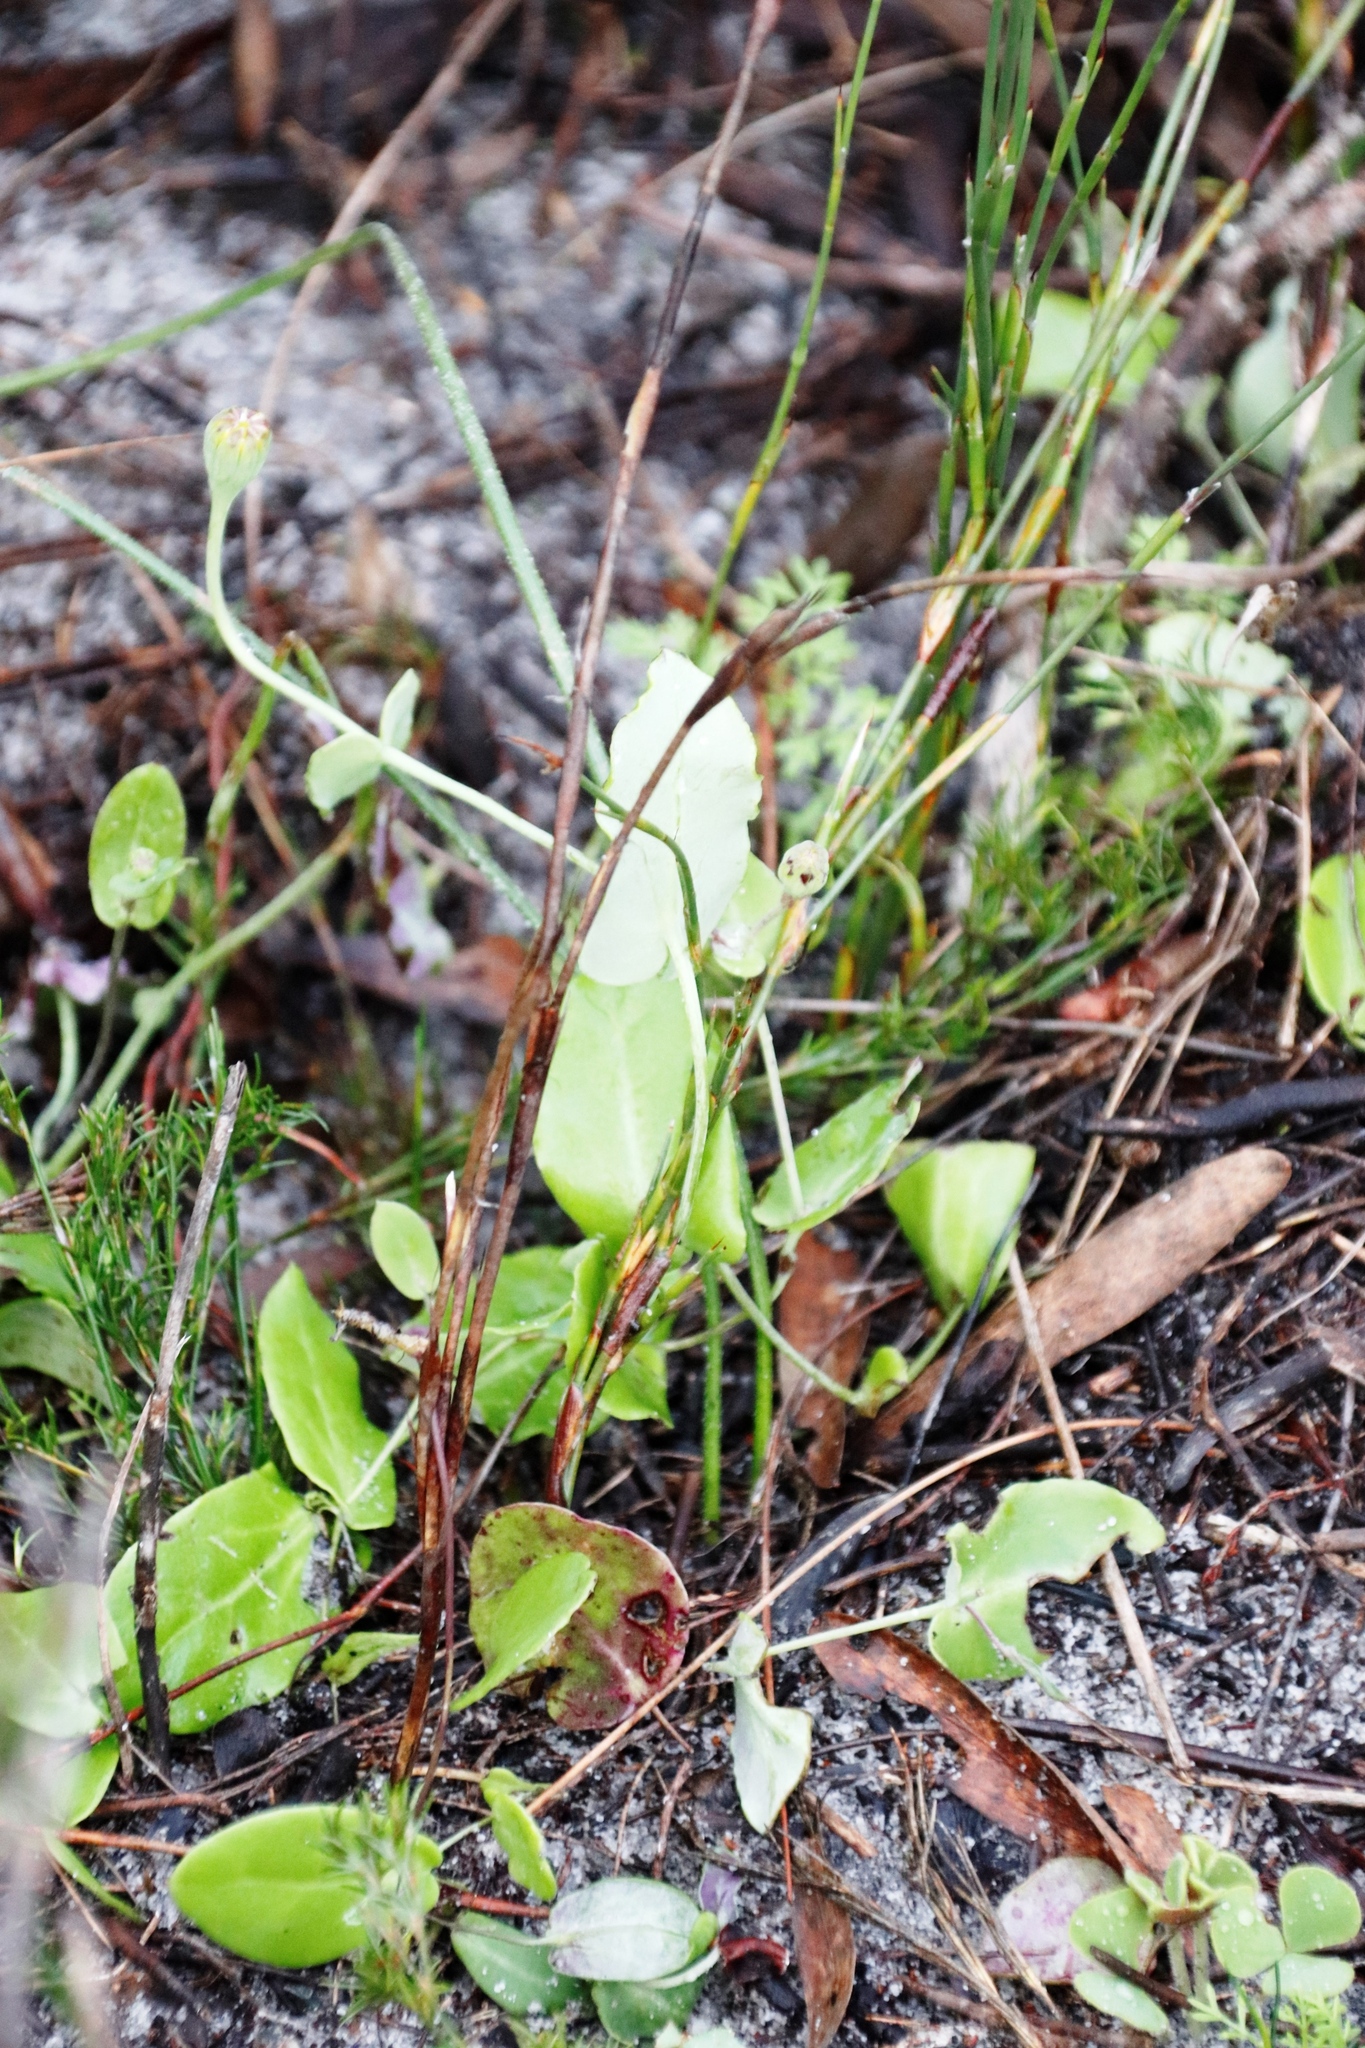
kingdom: Plantae
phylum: Tracheophyta
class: Magnoliopsida
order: Asterales
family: Asteraceae
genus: Othonna
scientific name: Othonna undulosa
